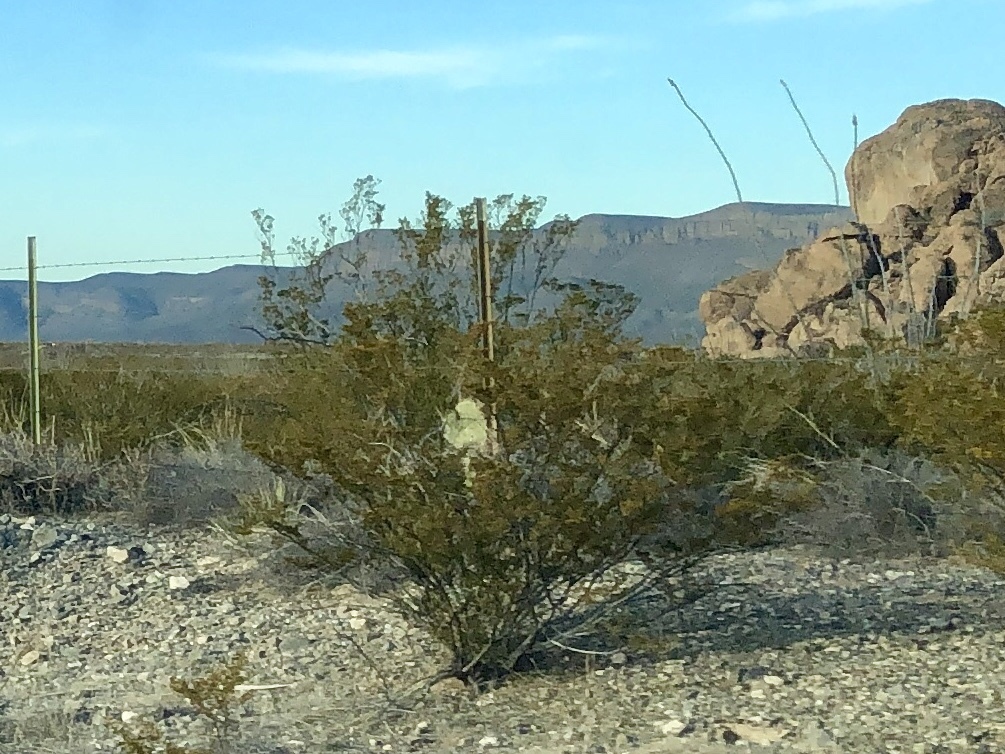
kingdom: Plantae
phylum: Tracheophyta
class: Magnoliopsida
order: Zygophyllales
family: Zygophyllaceae
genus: Larrea
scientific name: Larrea tridentata
